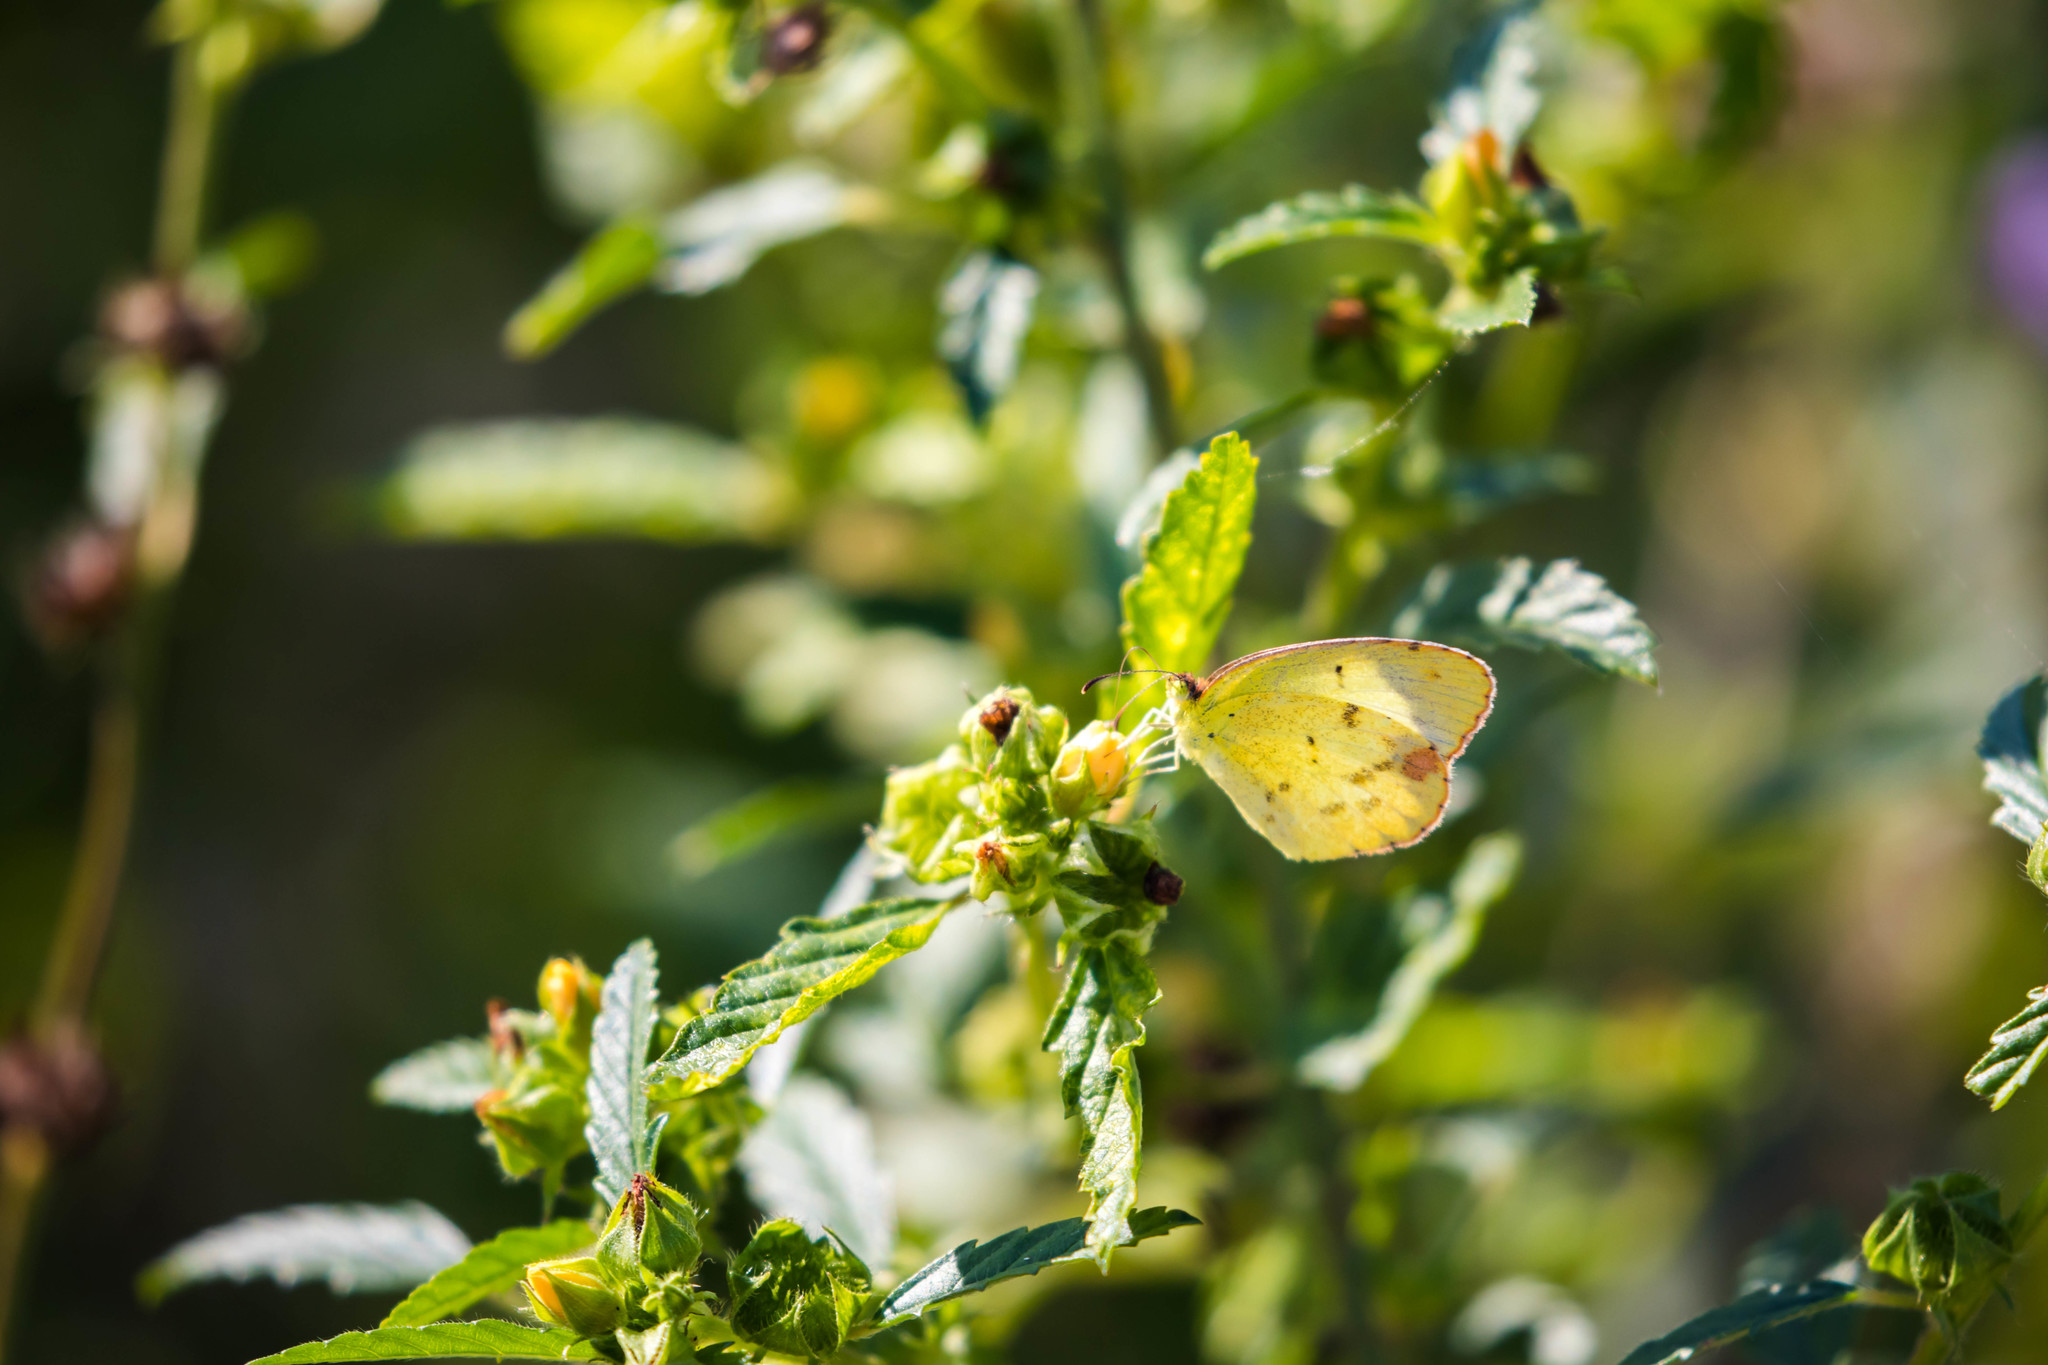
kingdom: Animalia
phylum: Arthropoda
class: Insecta
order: Lepidoptera
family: Pieridae
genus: Pyrisitia
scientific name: Pyrisitia lisa
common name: Little yellow
